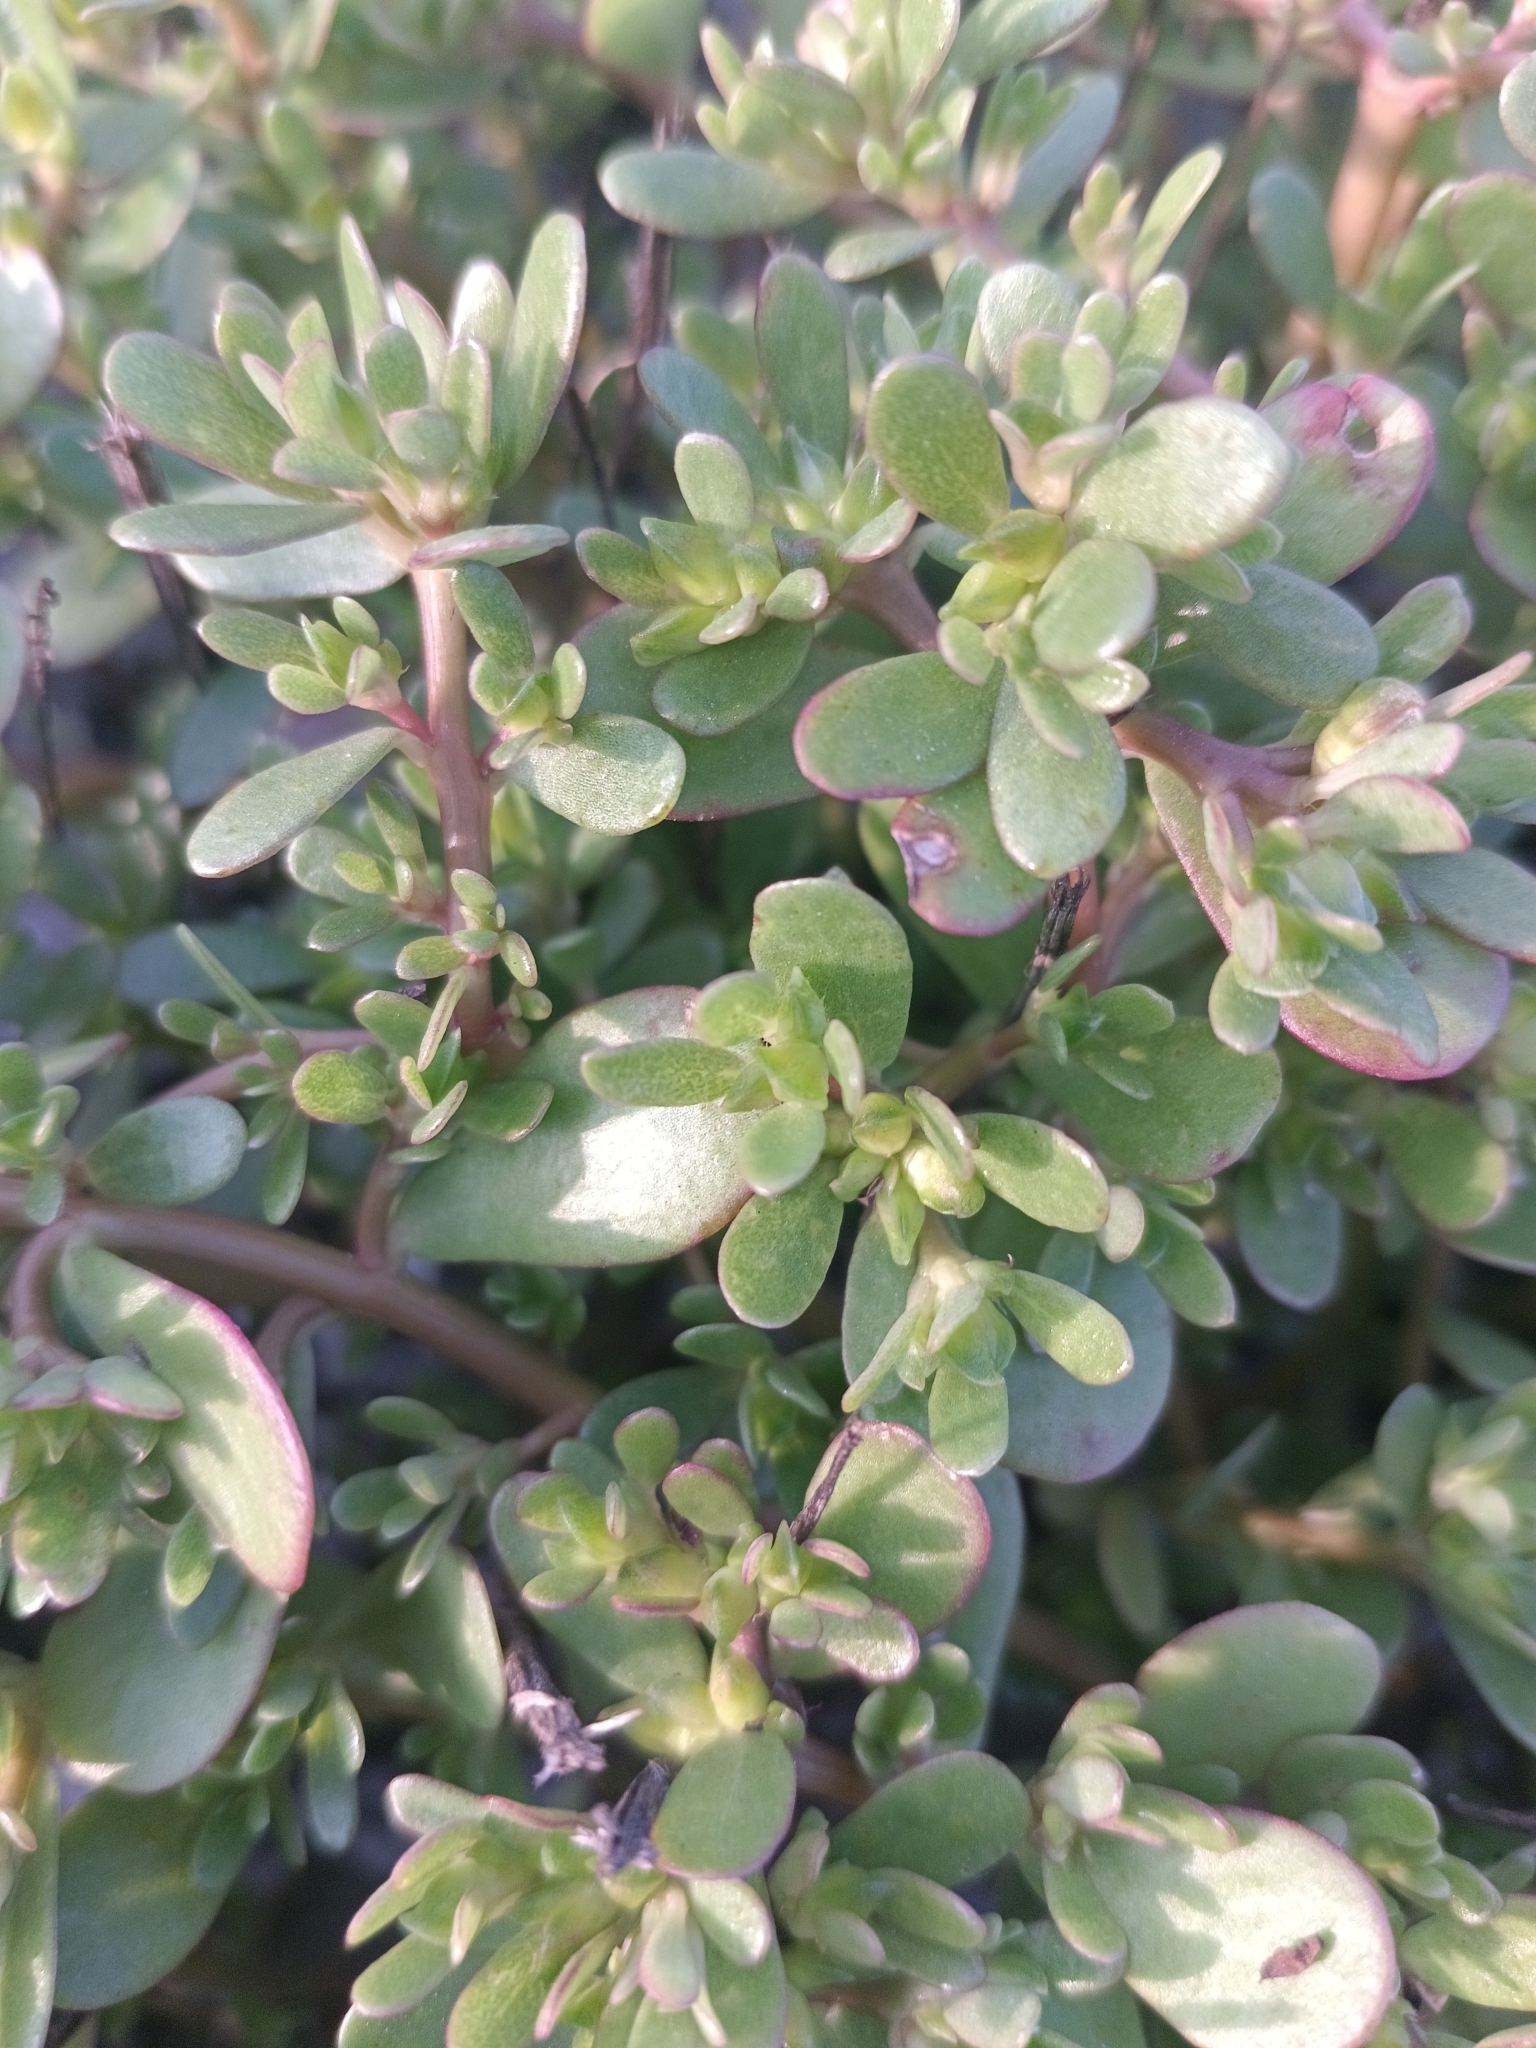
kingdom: Plantae
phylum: Tracheophyta
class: Magnoliopsida
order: Caryophyllales
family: Portulacaceae
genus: Portulaca
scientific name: Portulaca oleracea
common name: Common purslane
